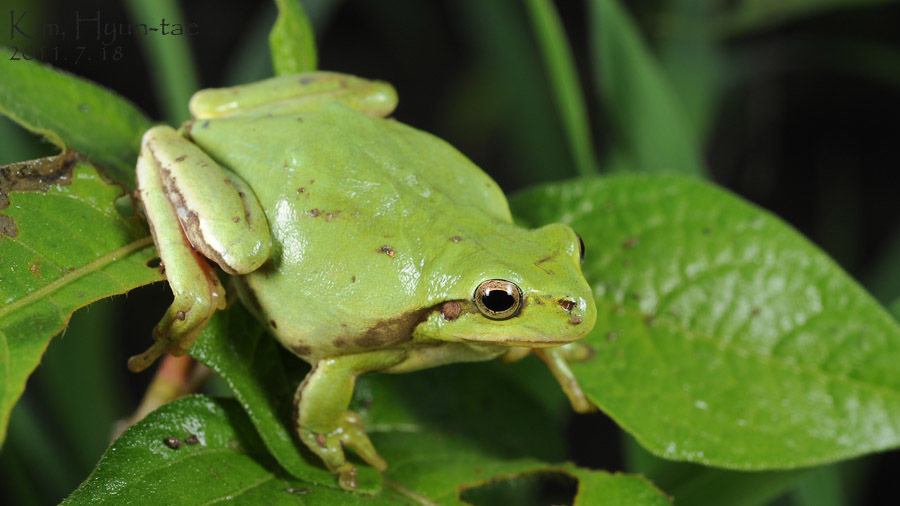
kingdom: Animalia
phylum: Chordata
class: Amphibia
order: Anura
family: Hylidae
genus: Dryophytes
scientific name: Dryophytes immaculatus
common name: North china treefrog
